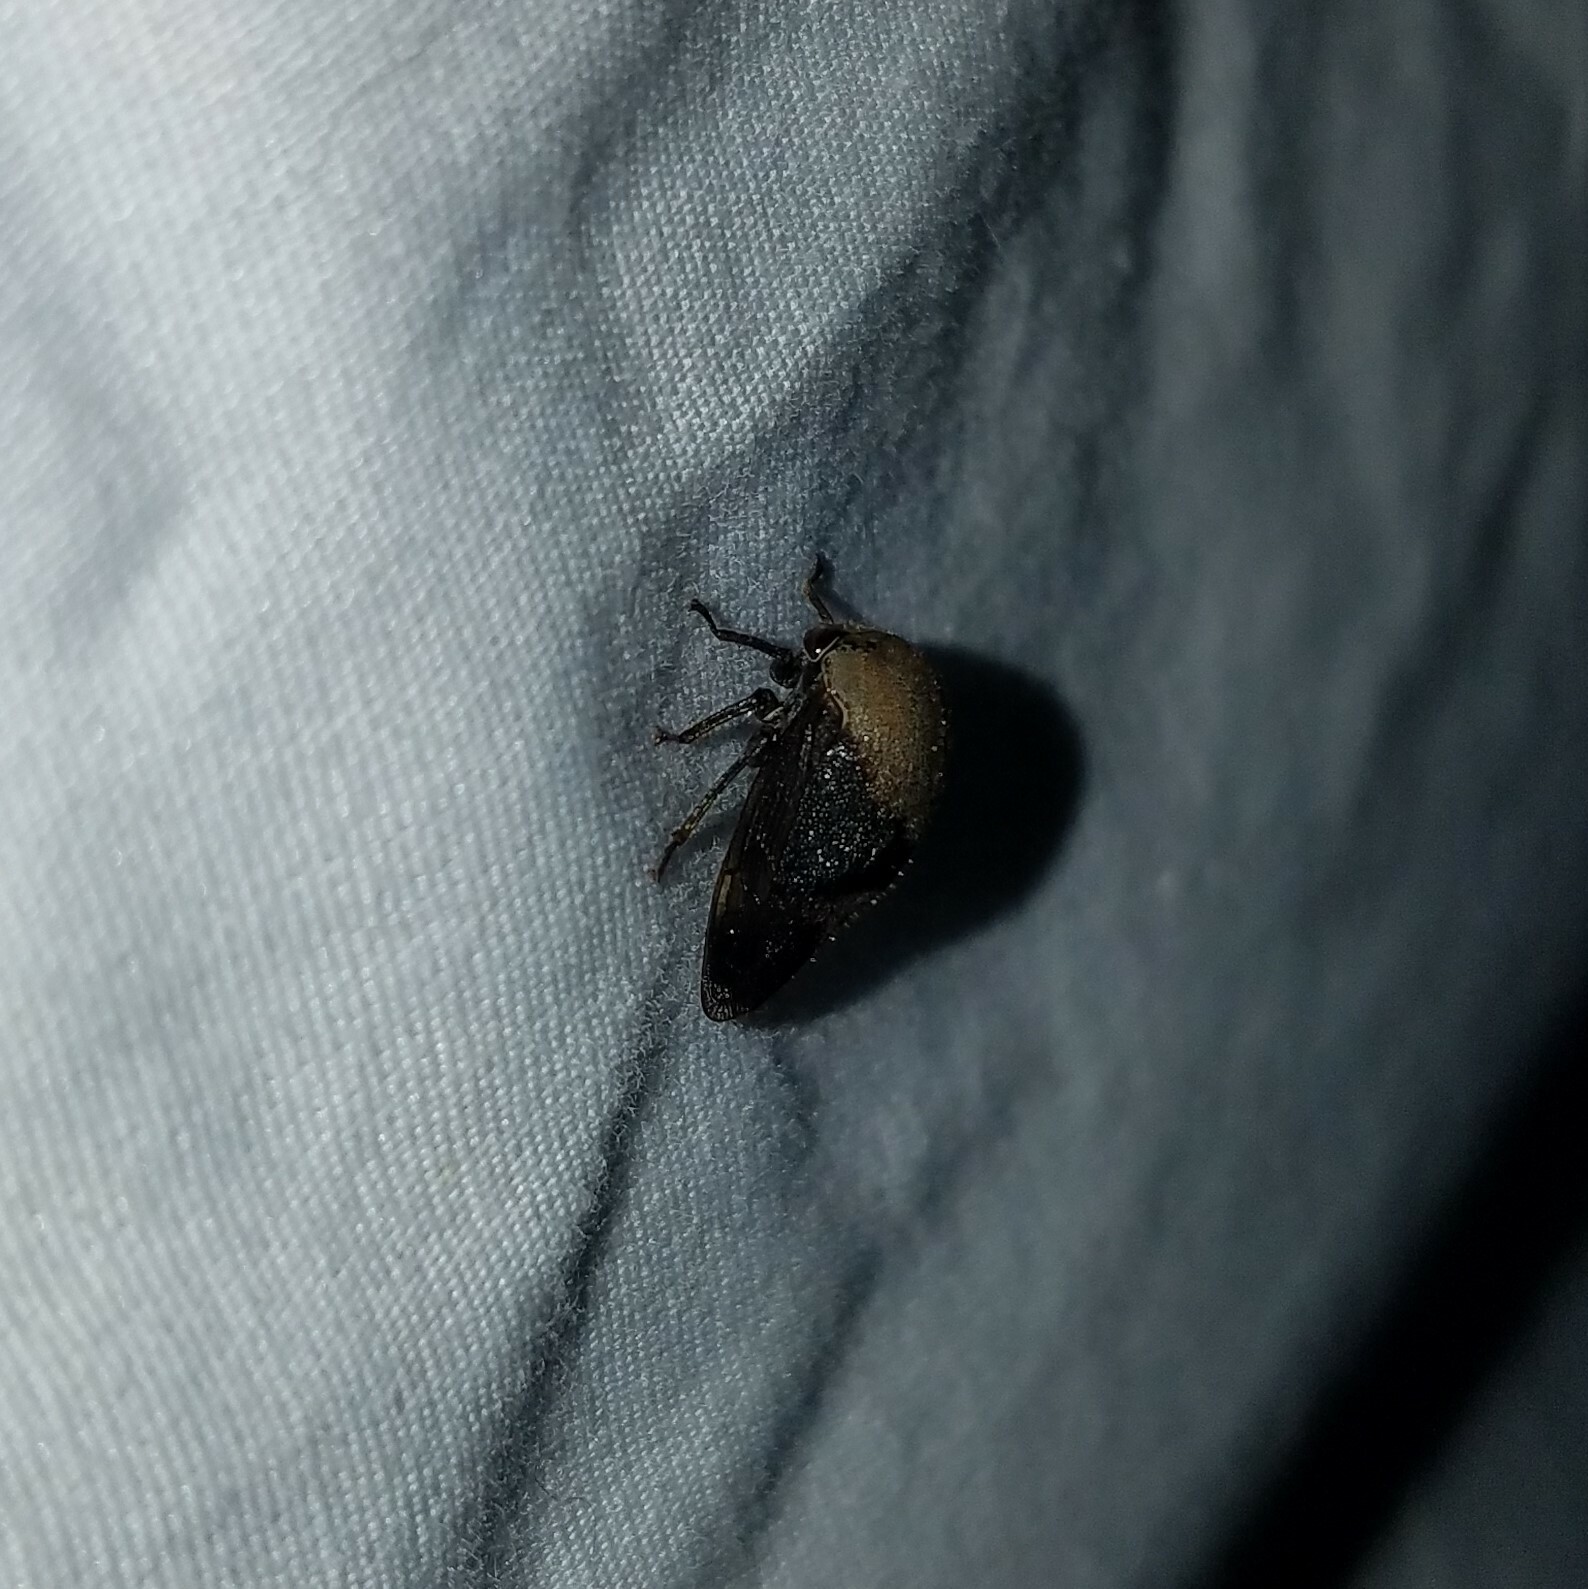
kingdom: Animalia
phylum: Arthropoda
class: Insecta
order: Hemiptera
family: Membracidae
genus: Carynota
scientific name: Carynota mera
